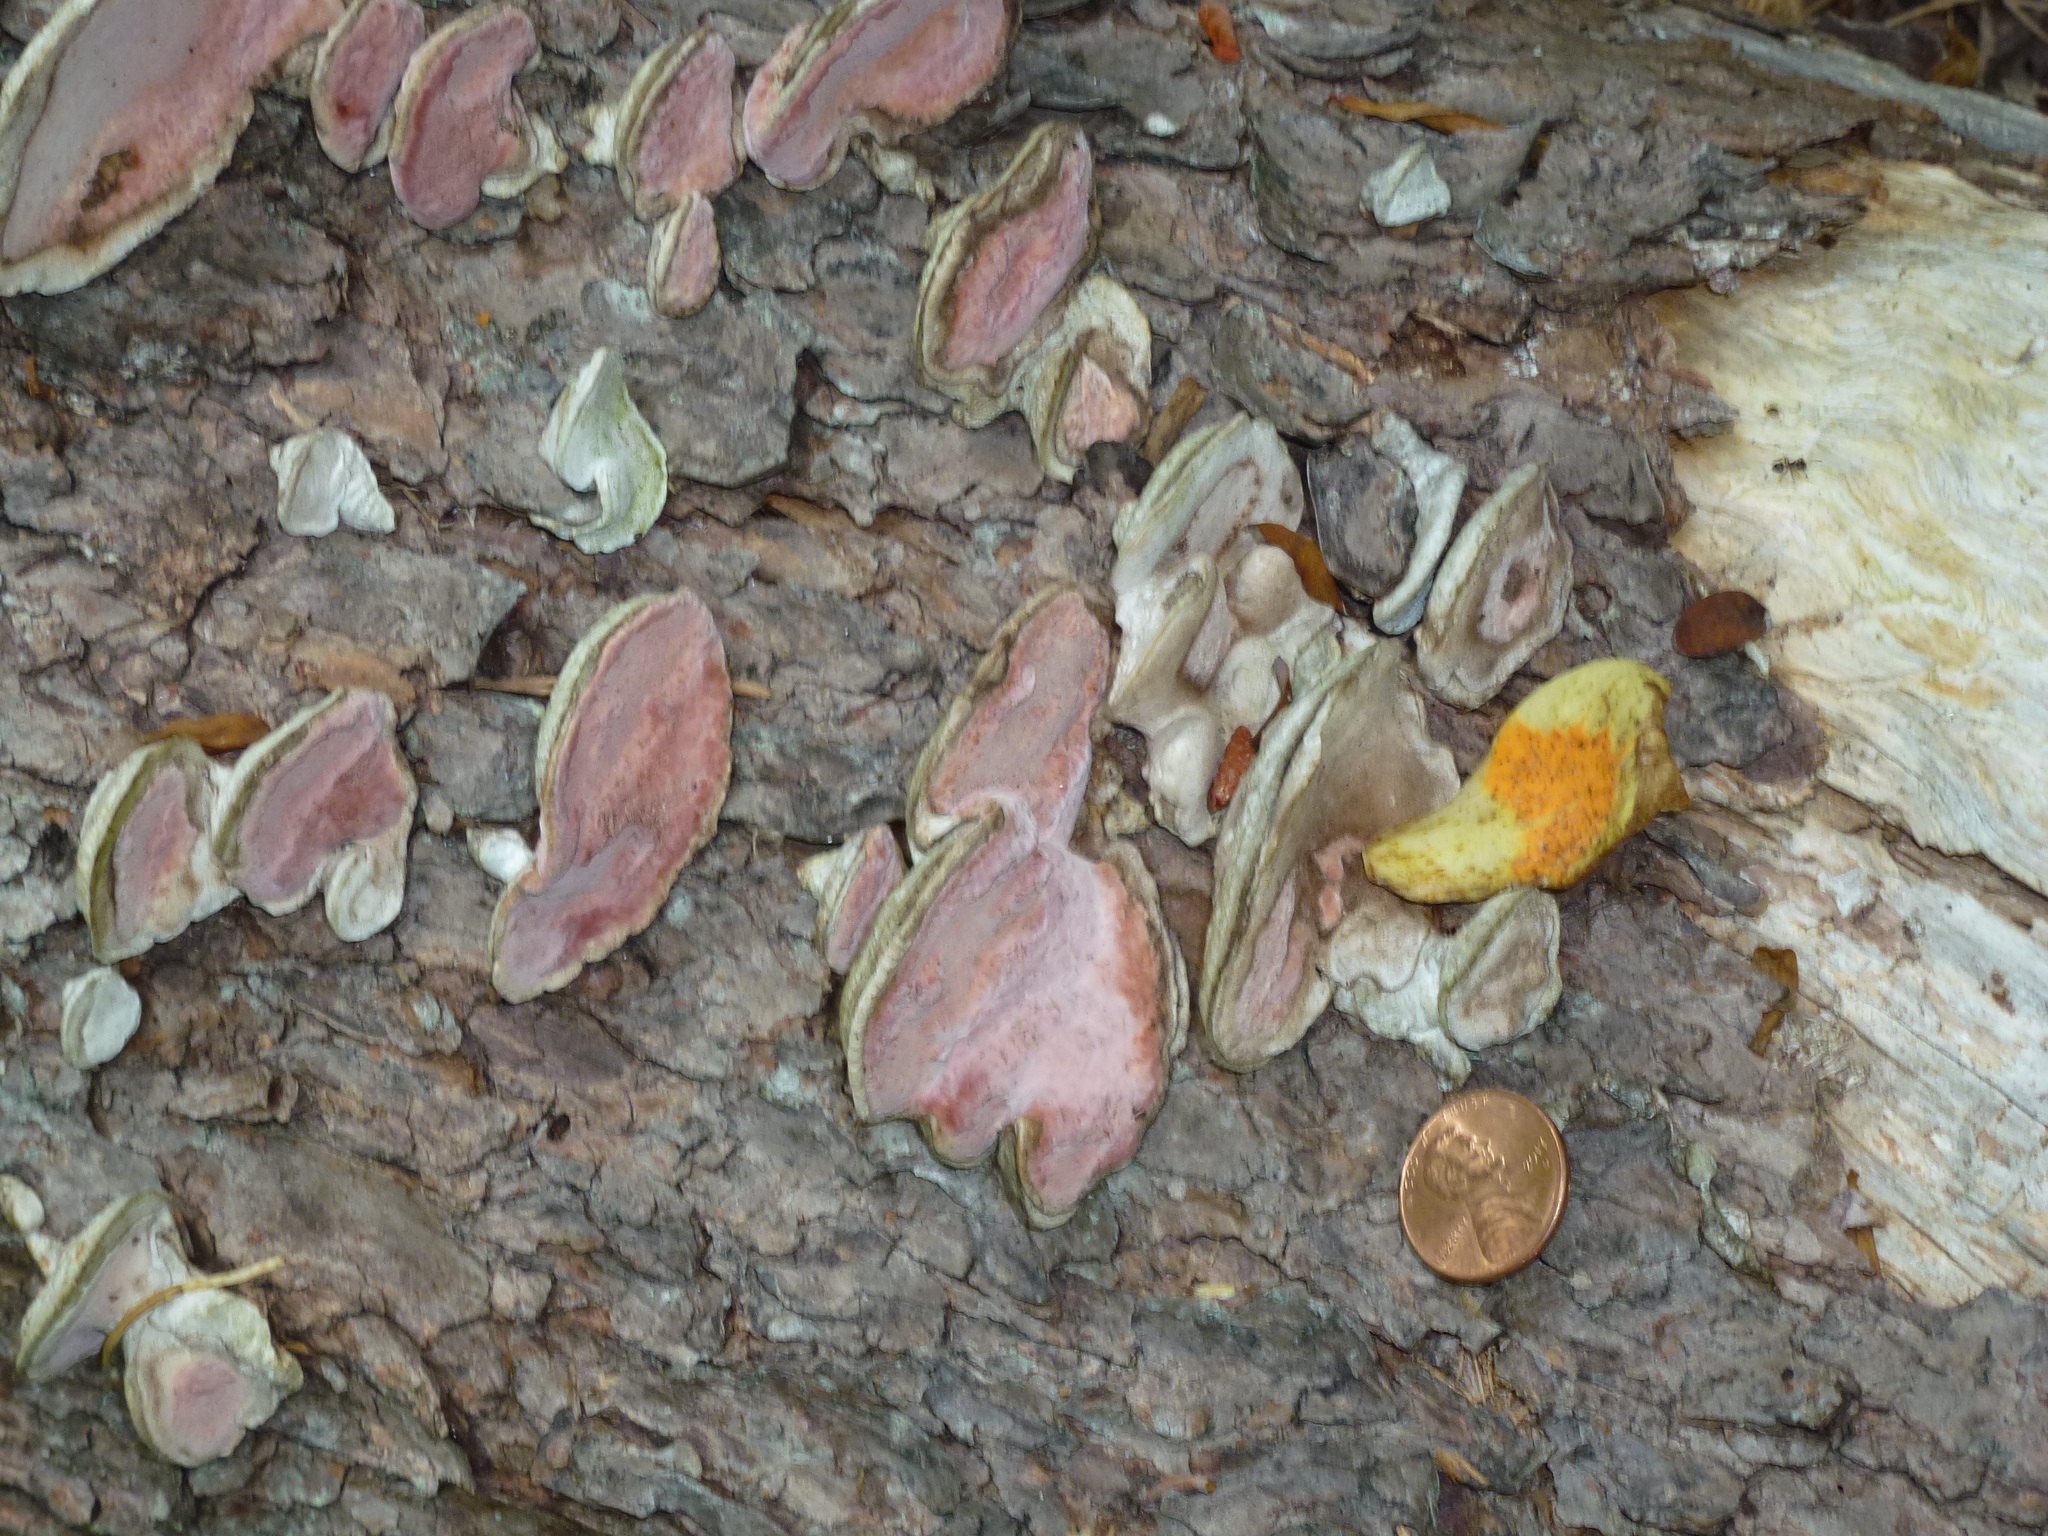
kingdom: Fungi
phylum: Basidiomycota
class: Agaricomycetes
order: Polyporales
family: Fomitopsidaceae
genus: Rhodofomes
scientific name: Rhodofomes cajanderi
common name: Rosy conk
